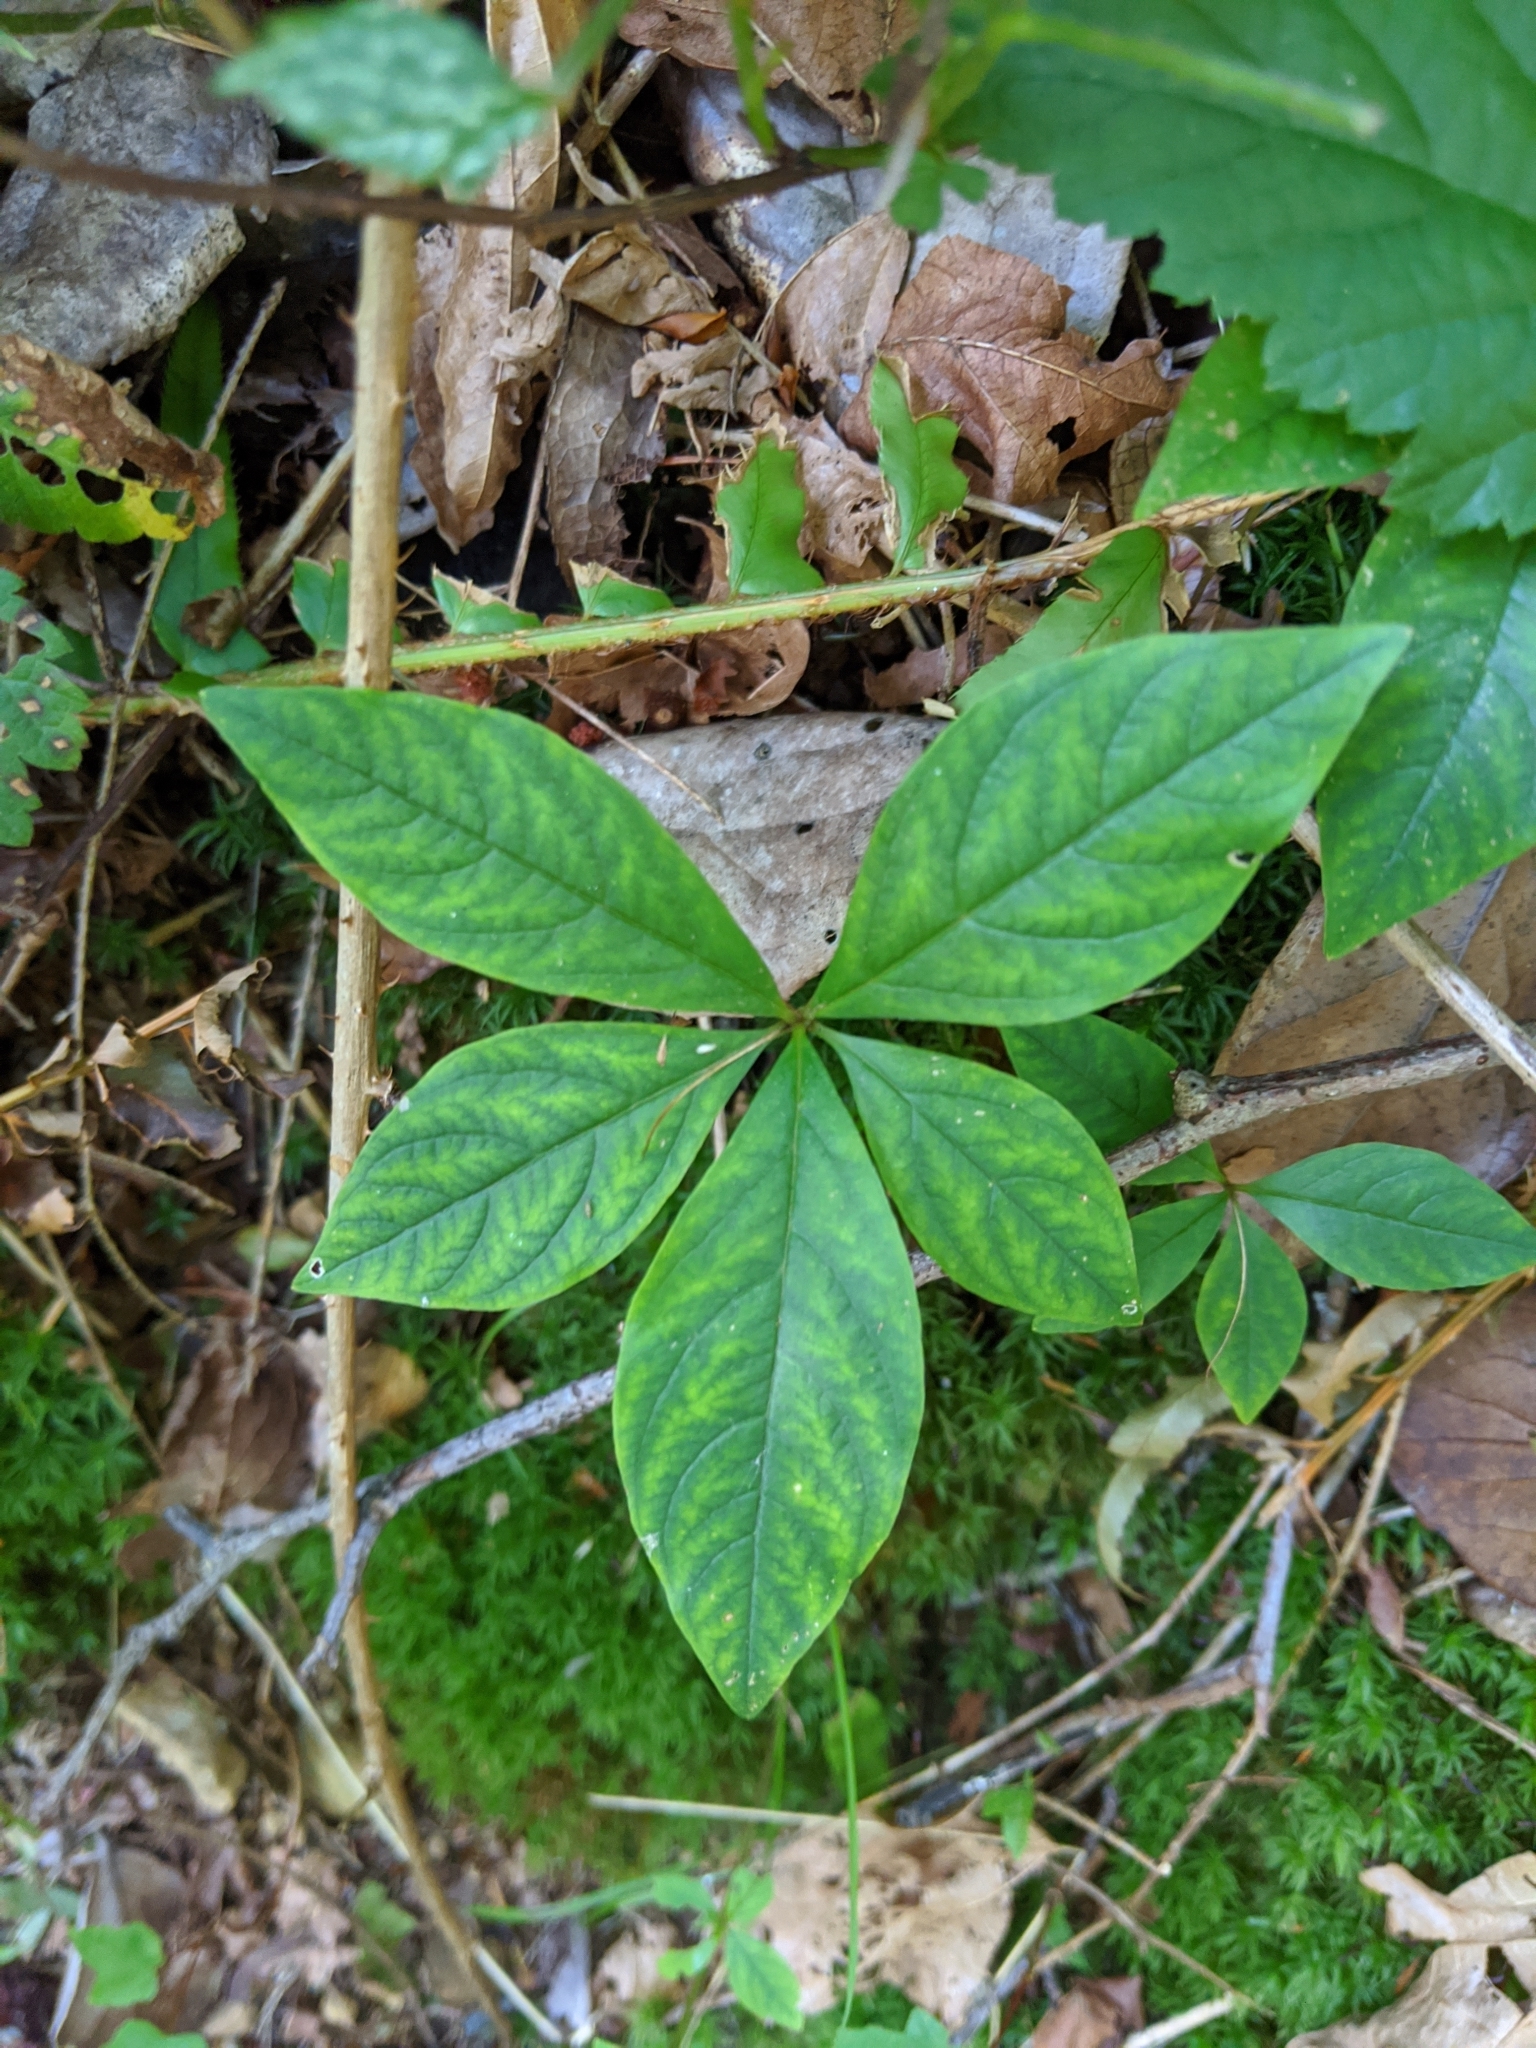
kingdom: Plantae
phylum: Tracheophyta
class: Magnoliopsida
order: Ericales
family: Primulaceae
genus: Lysimachia
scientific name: Lysimachia latifolia
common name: Pacific starflower
